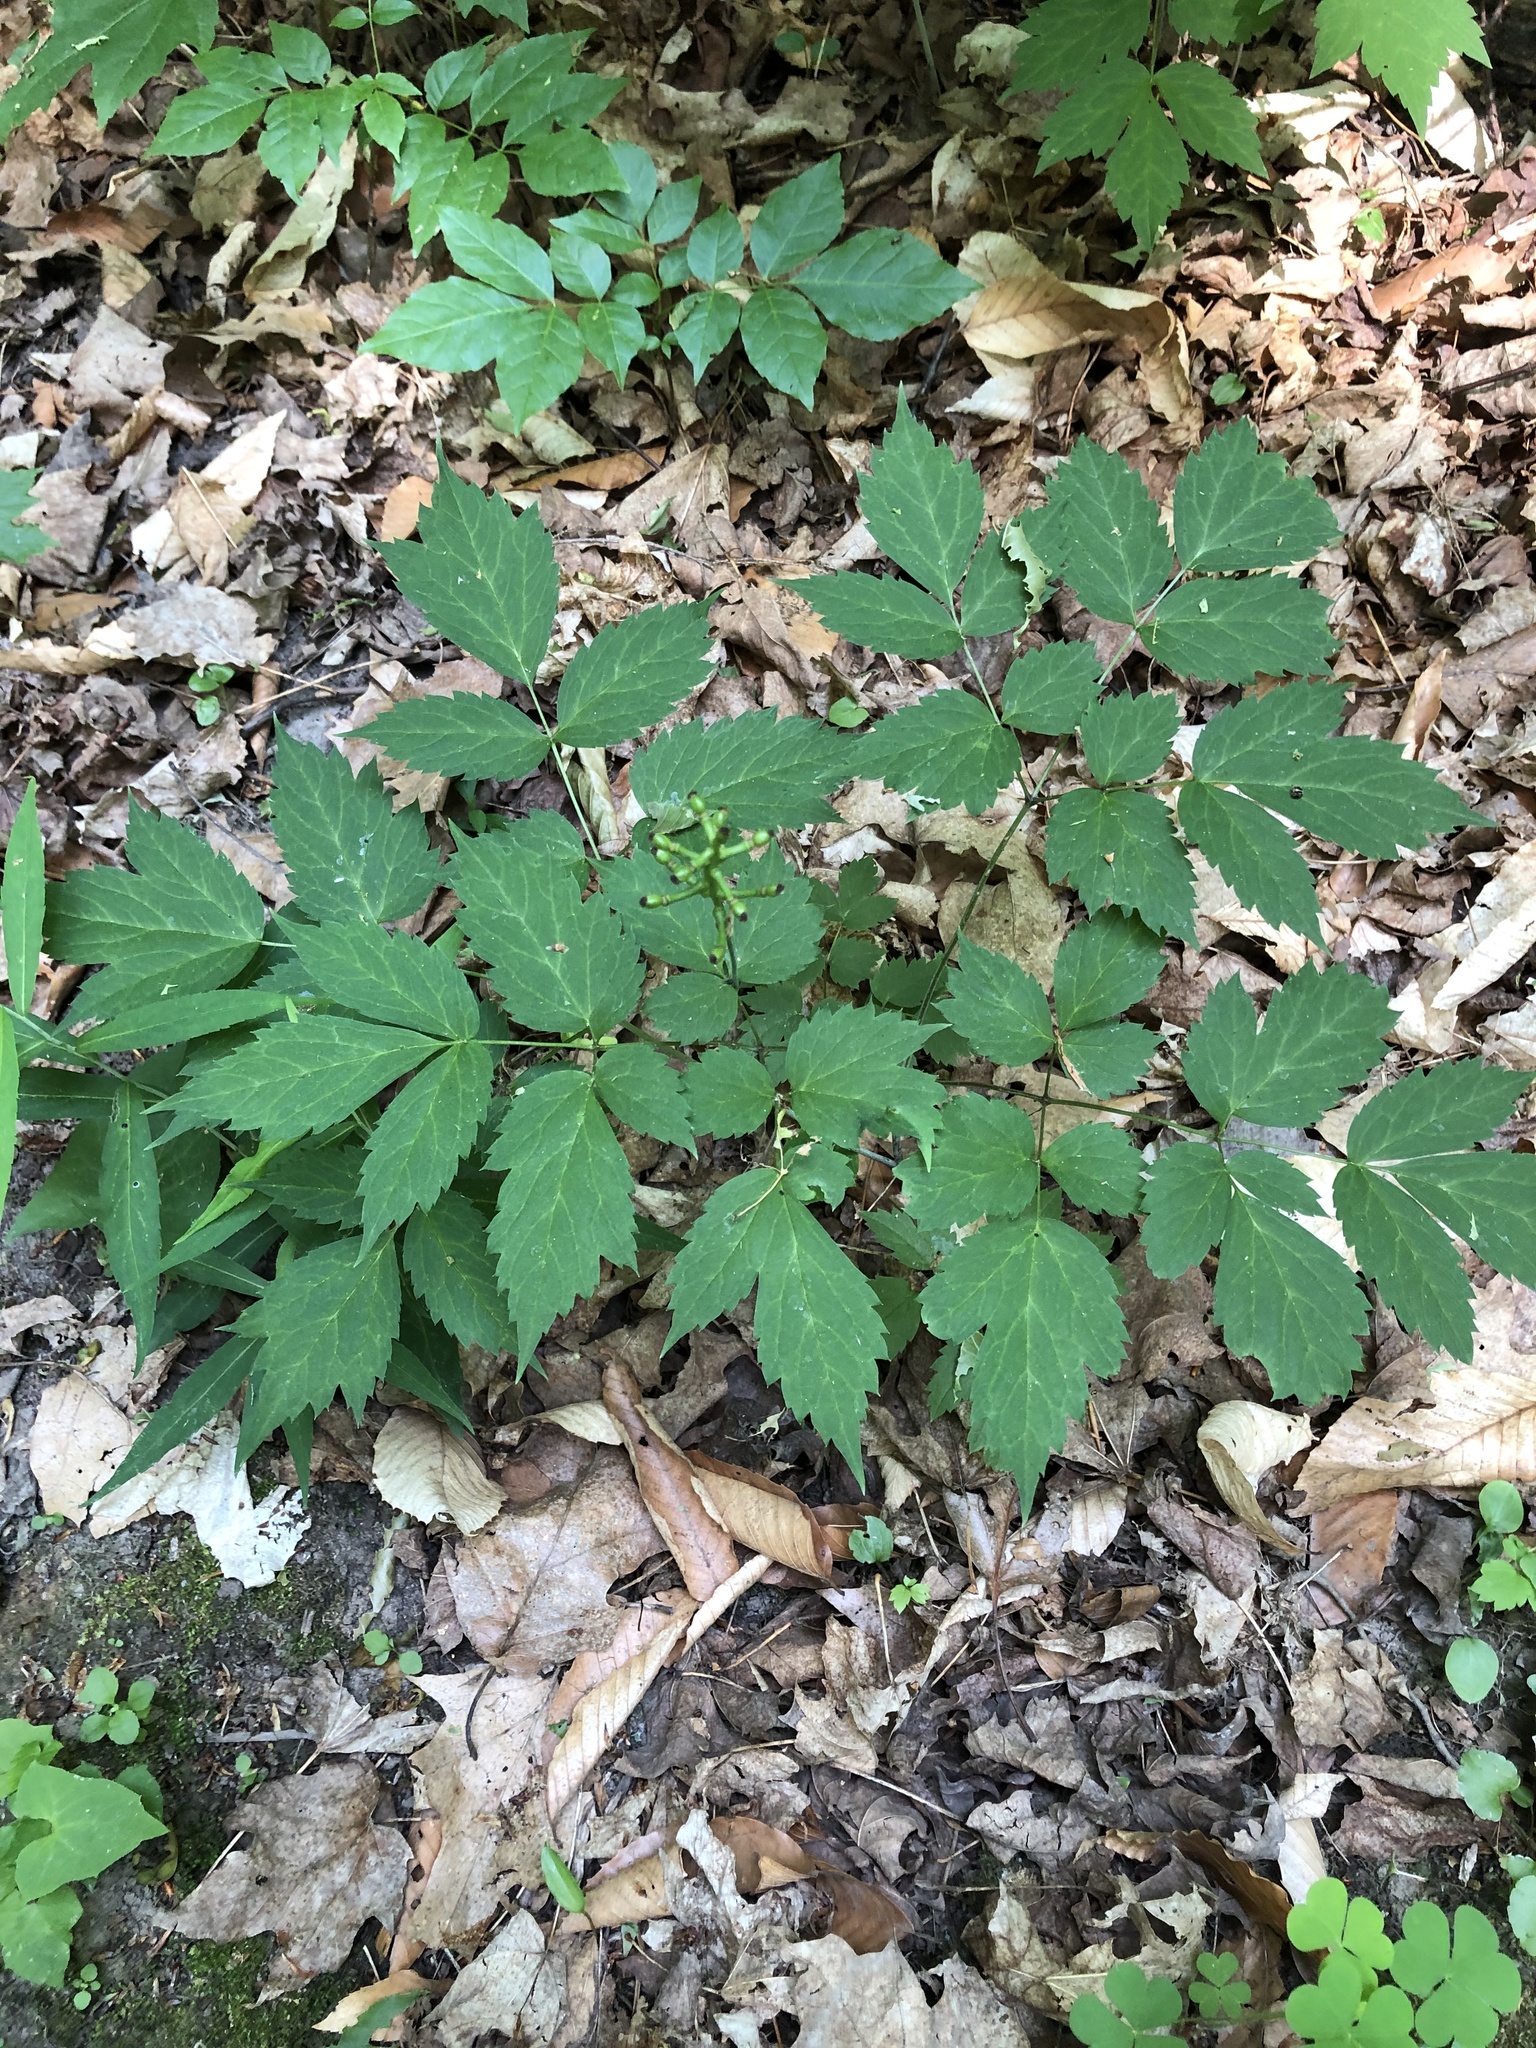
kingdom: Plantae
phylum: Tracheophyta
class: Magnoliopsida
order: Ranunculales
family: Ranunculaceae
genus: Actaea
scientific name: Actaea pachypoda
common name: Doll's-eyes
